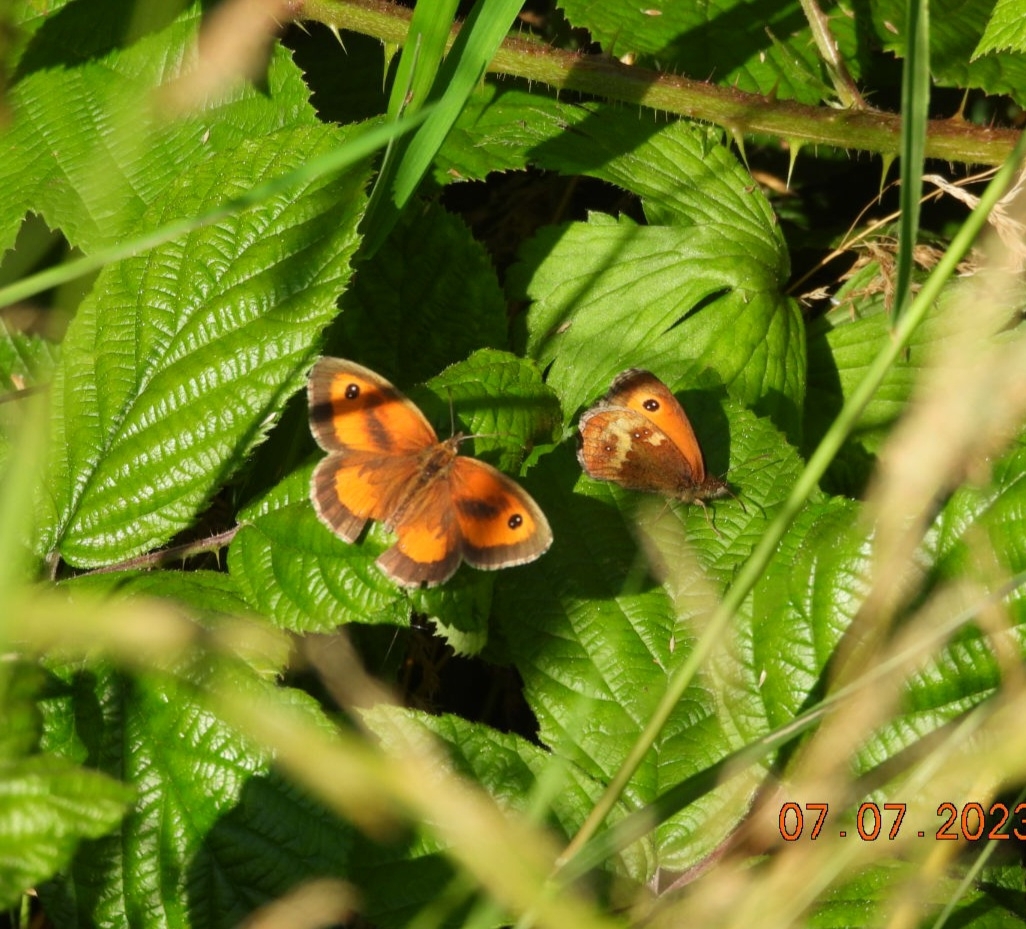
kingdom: Animalia
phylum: Arthropoda
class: Insecta
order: Lepidoptera
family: Nymphalidae
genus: Pyronia
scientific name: Pyronia tithonus
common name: Gatekeeper
